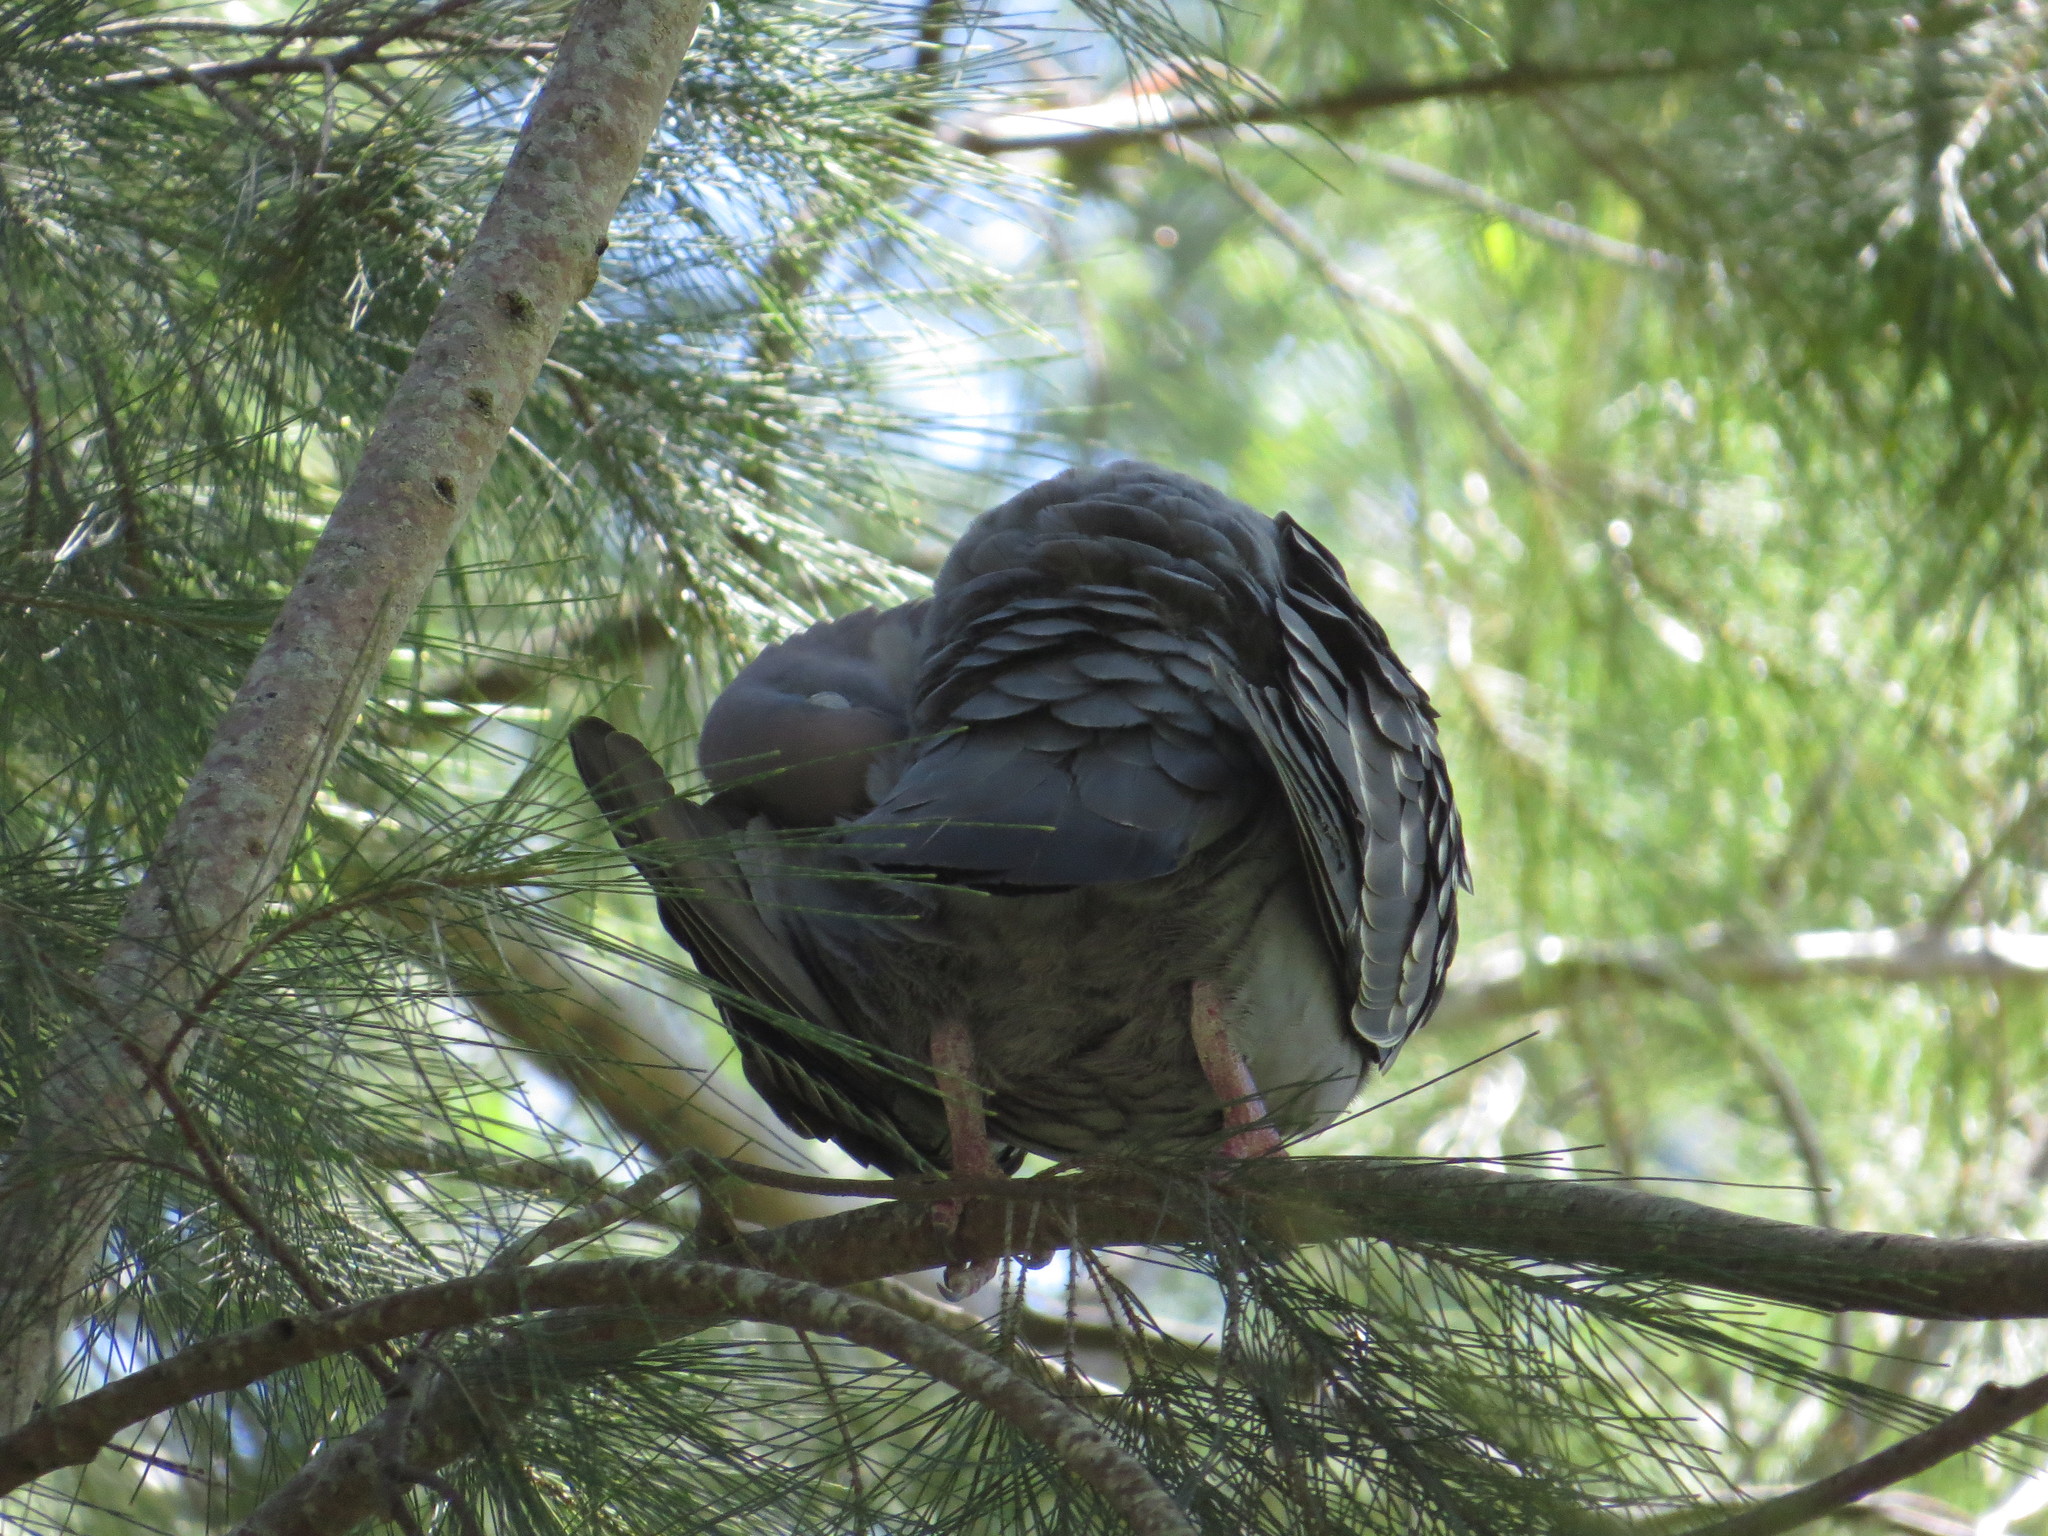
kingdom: Animalia
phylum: Chordata
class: Aves
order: Columbiformes
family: Columbidae
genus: Patagioenas
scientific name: Patagioenas maculosa
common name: Spot-winged pigeon
